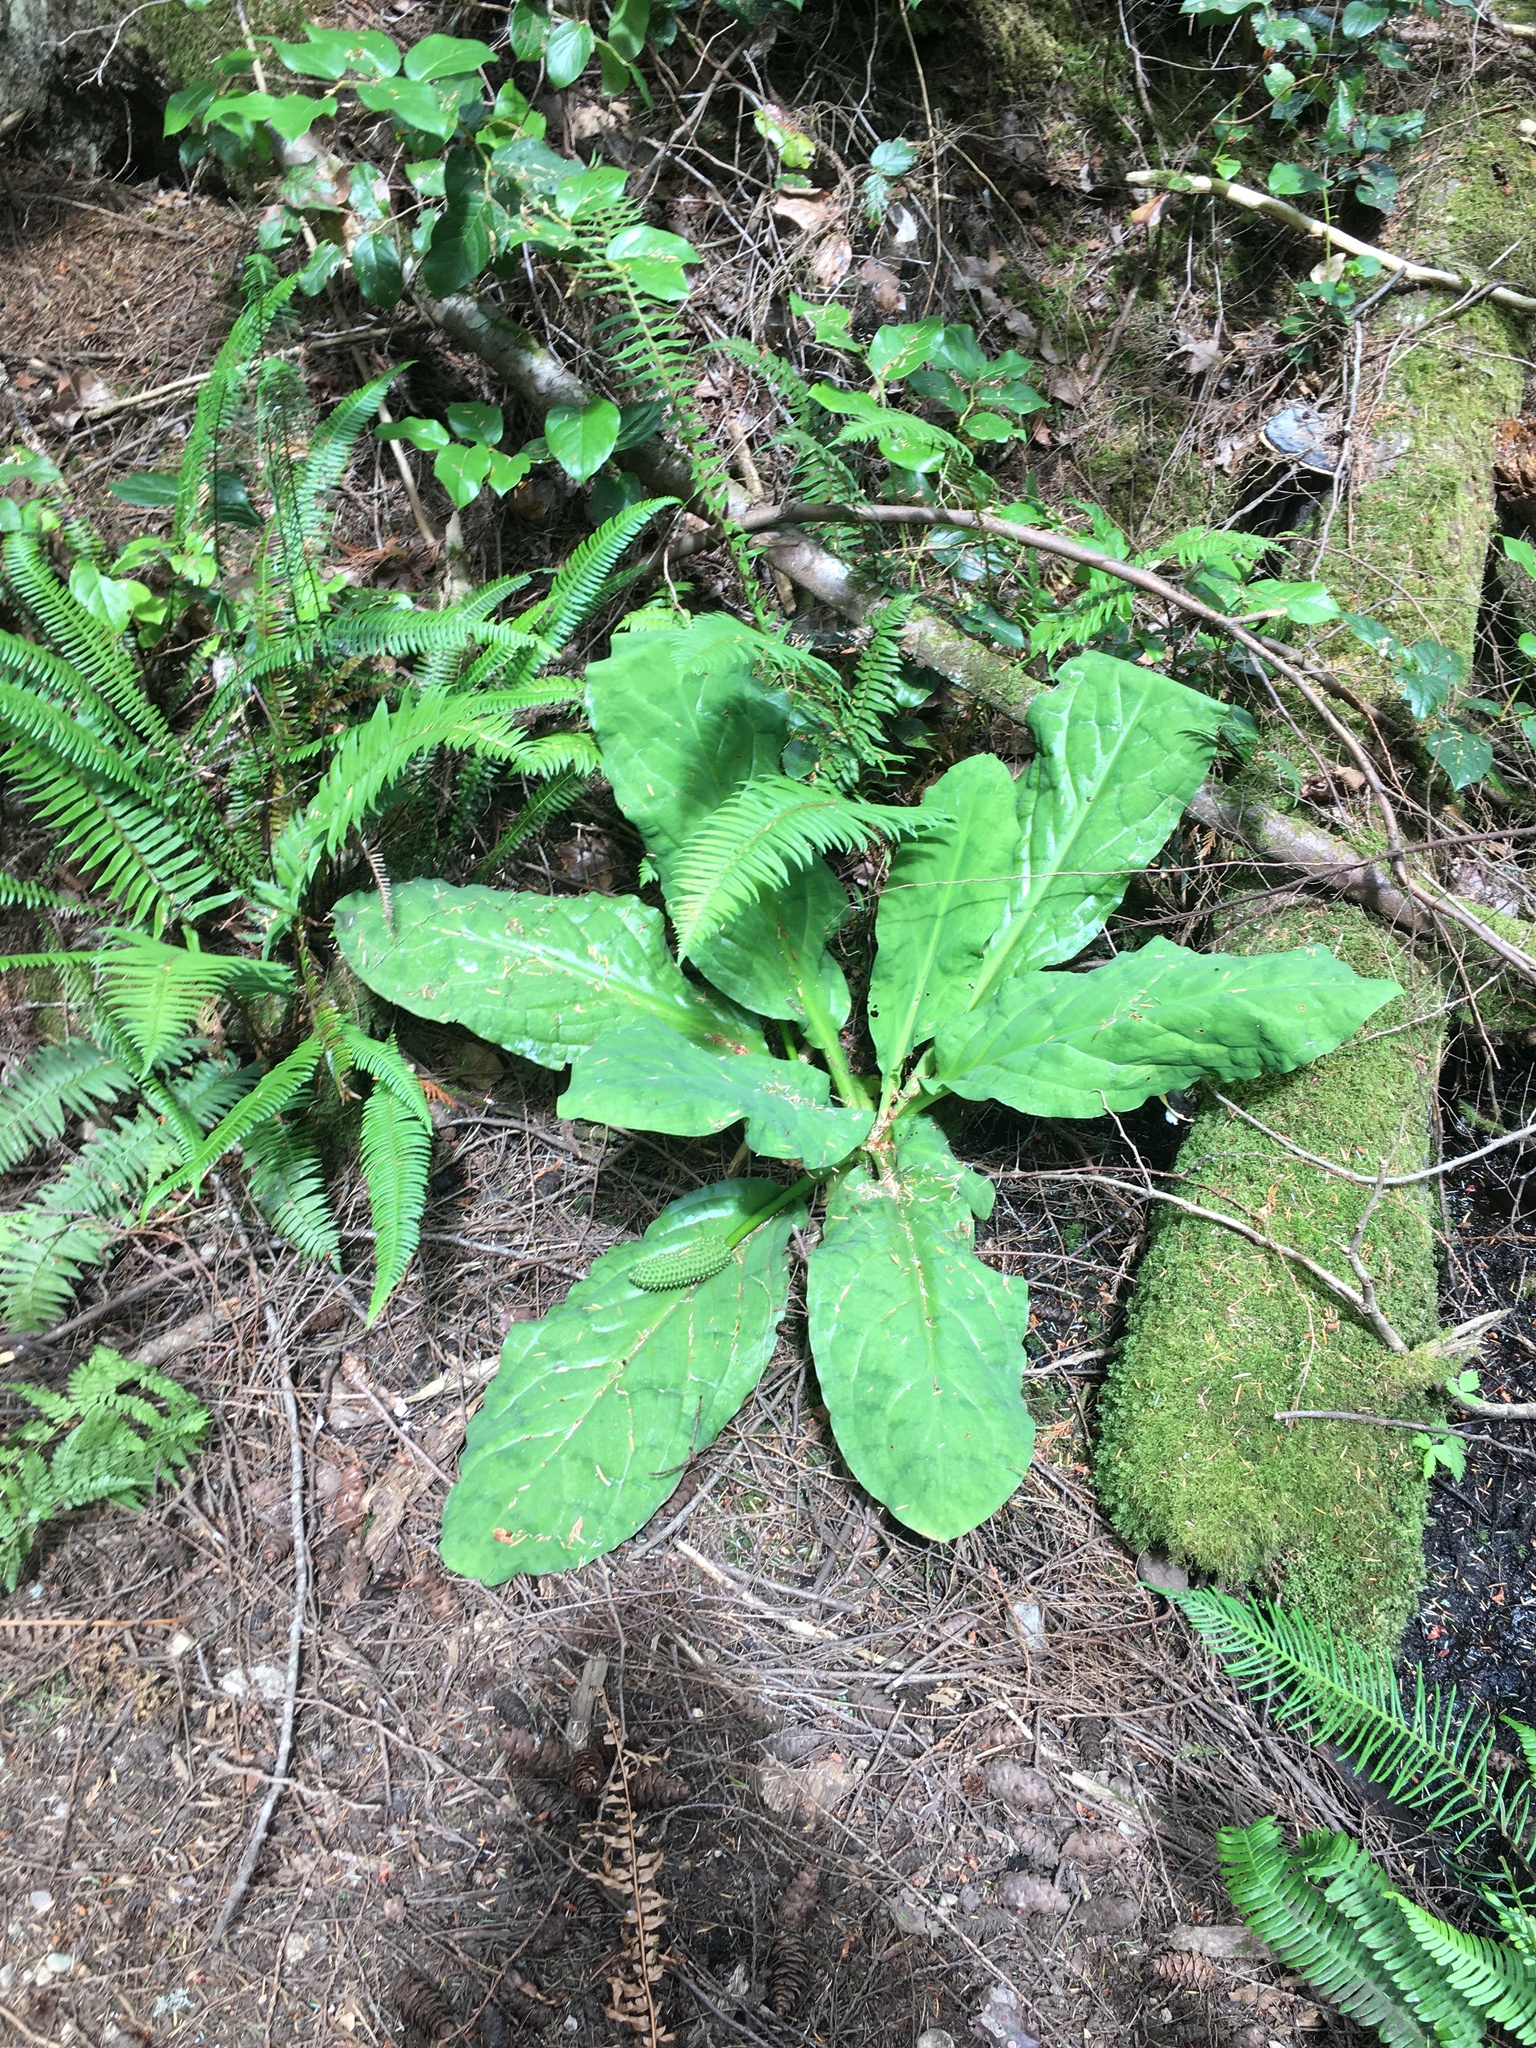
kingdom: Plantae
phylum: Tracheophyta
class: Liliopsida
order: Alismatales
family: Araceae
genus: Lysichiton
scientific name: Lysichiton americanus
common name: American skunk cabbage
